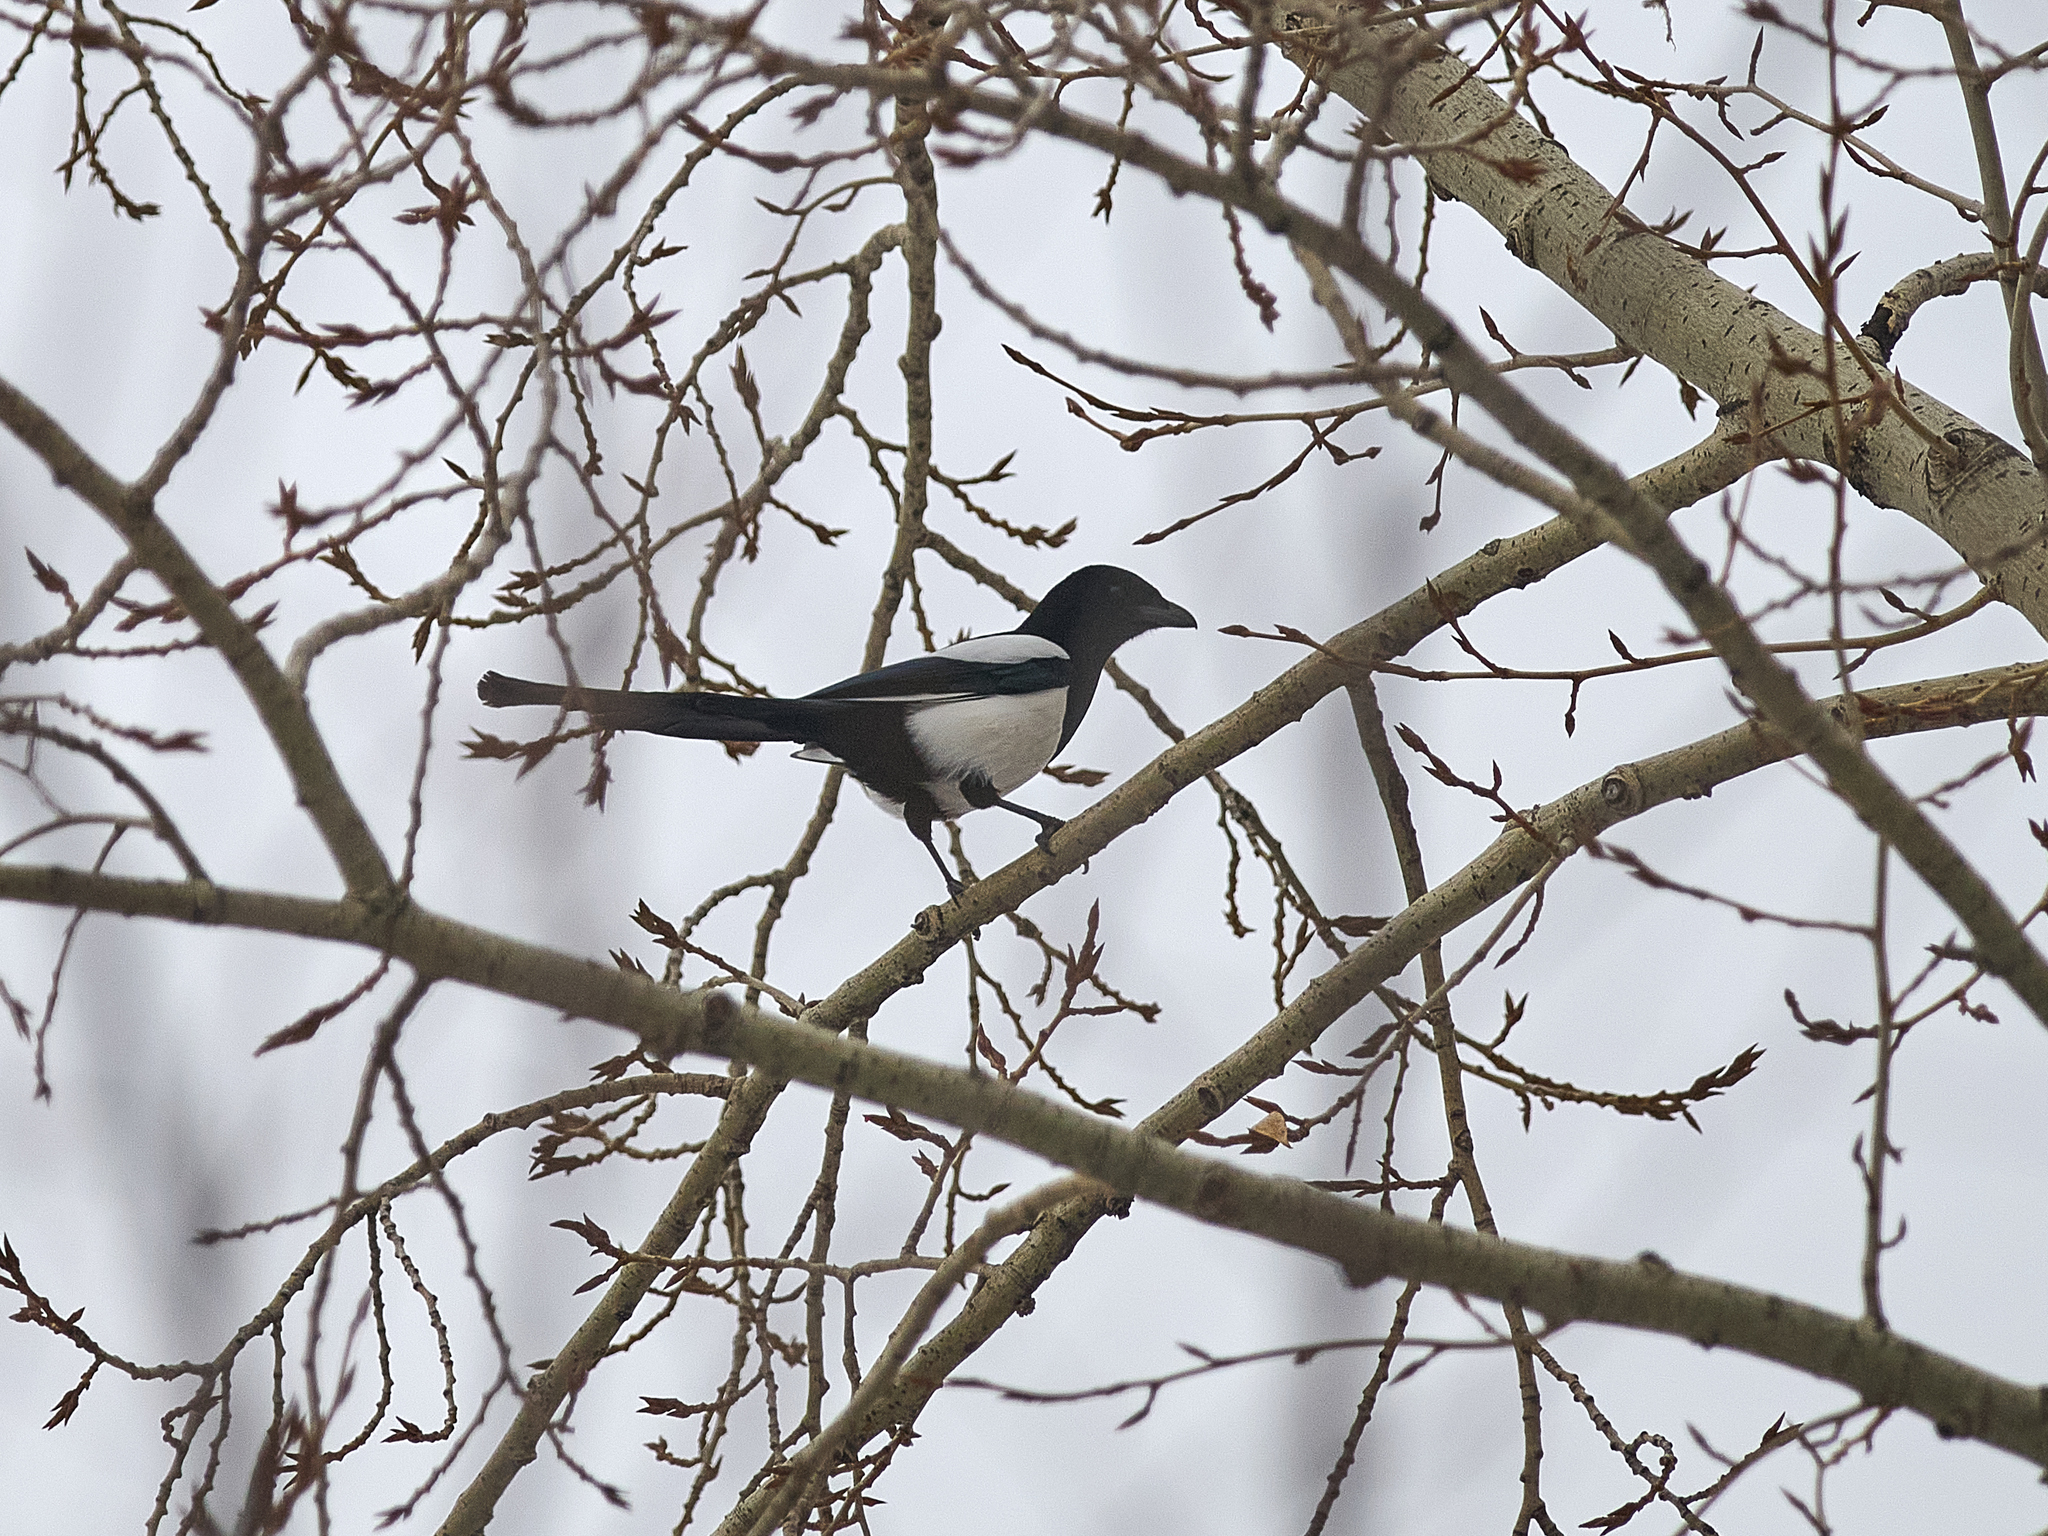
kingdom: Animalia
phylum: Chordata
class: Aves
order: Passeriformes
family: Corvidae
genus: Pica
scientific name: Pica pica
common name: Eurasian magpie
